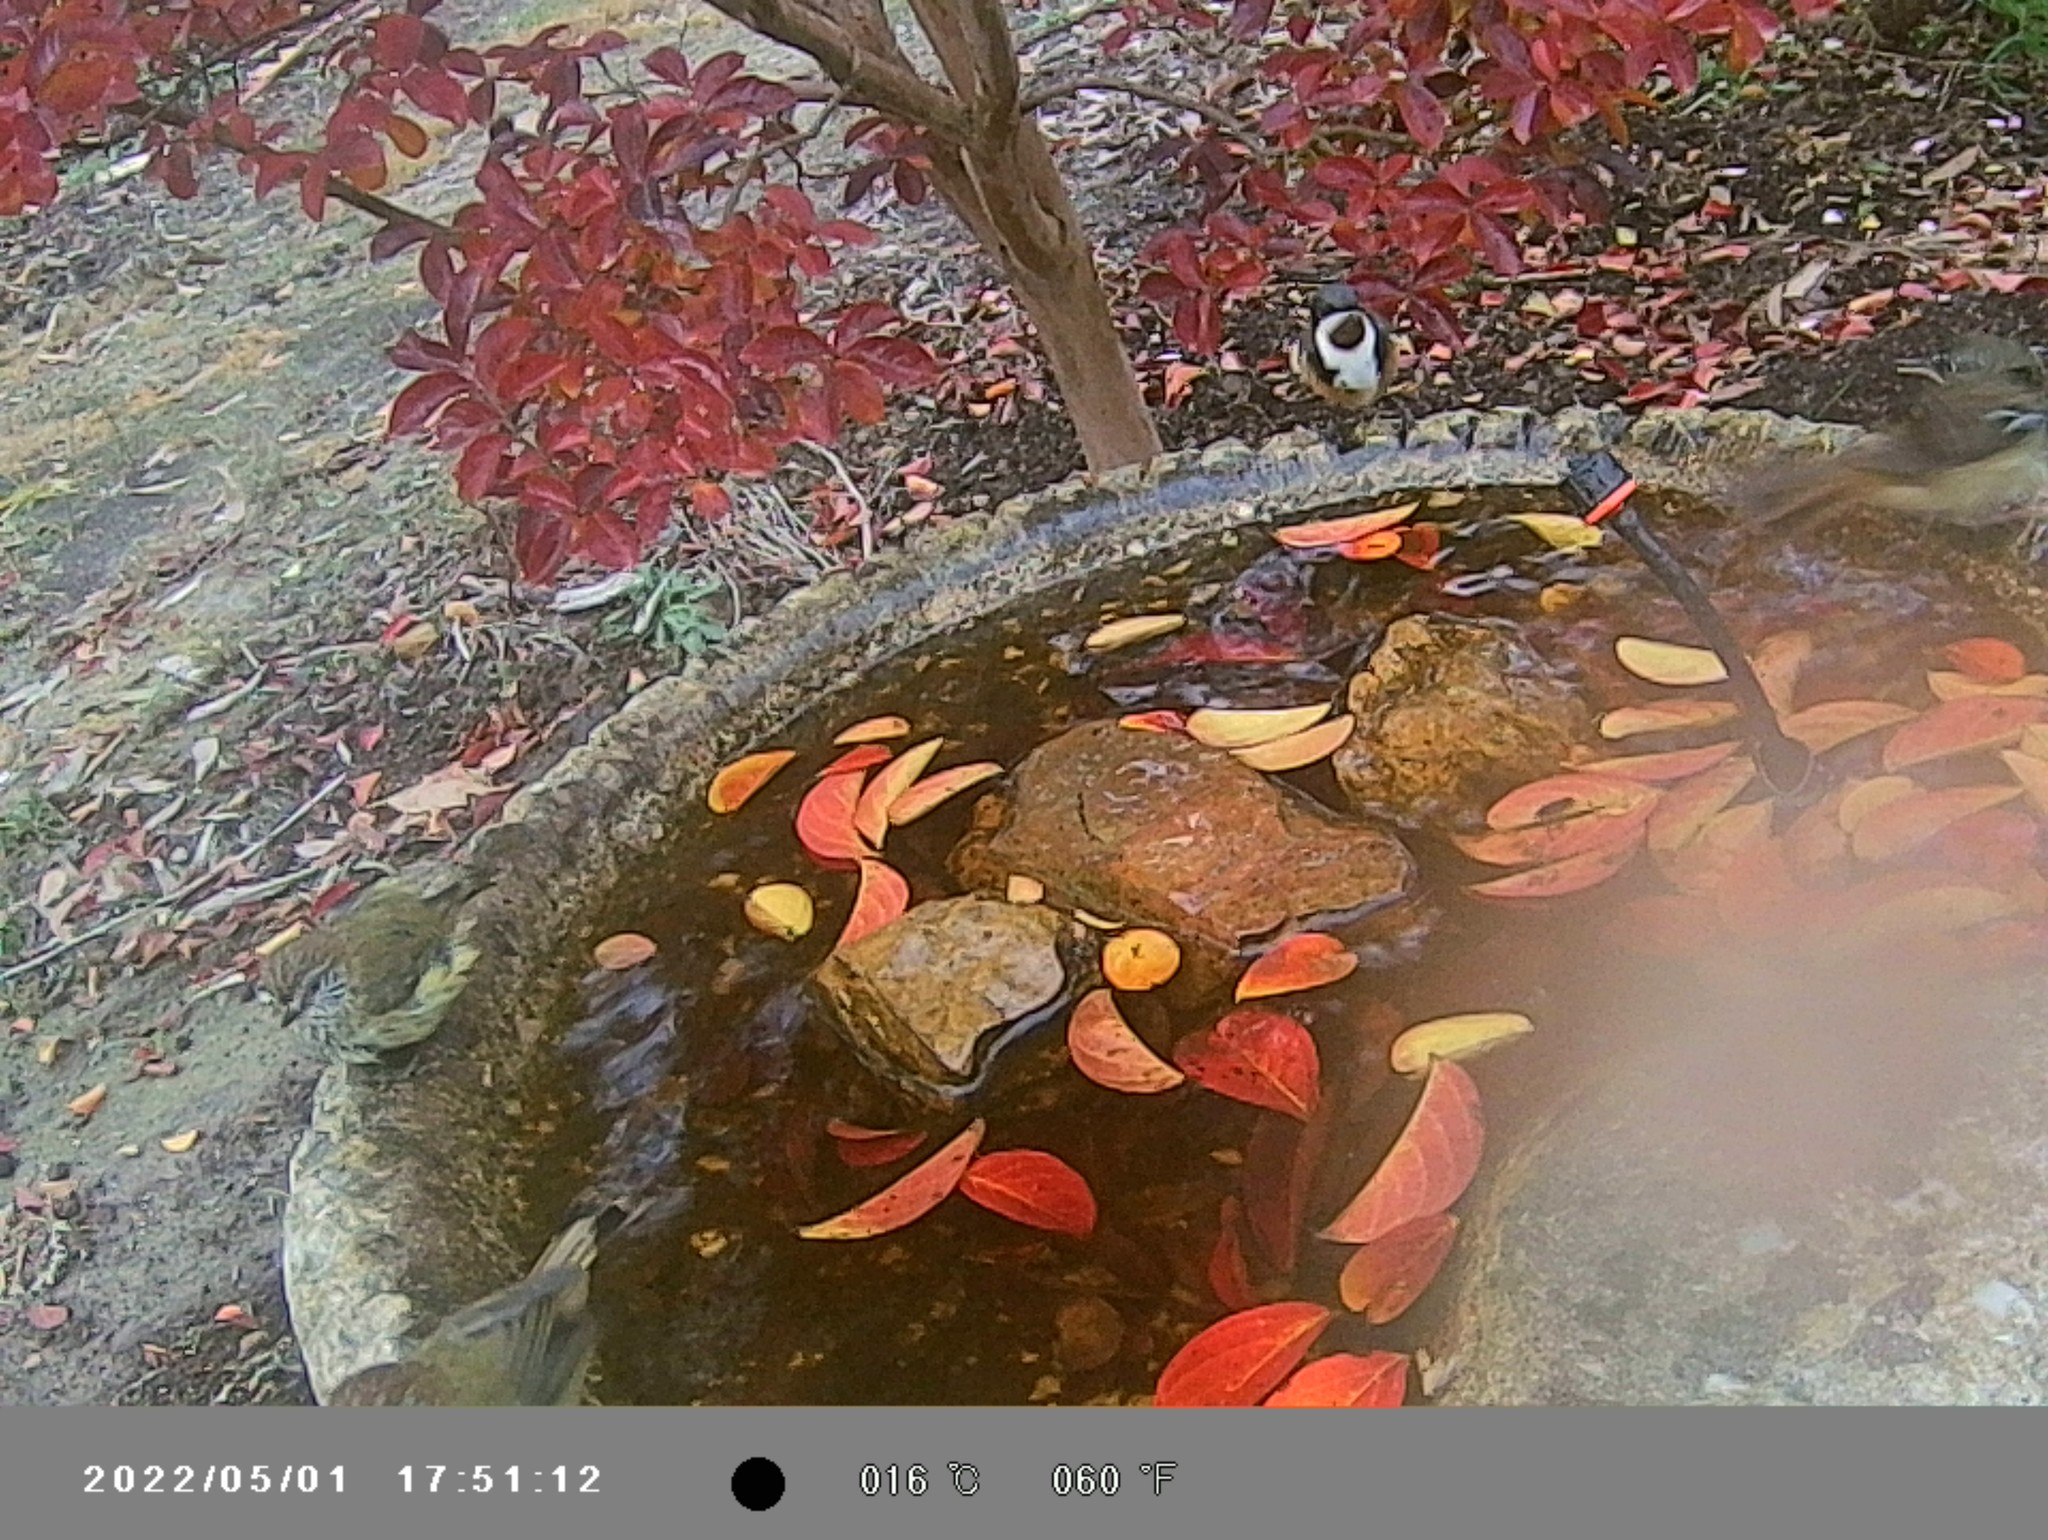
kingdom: Animalia
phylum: Chordata
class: Aves
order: Passeriformes
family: Meliphagidae
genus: Acanthorhynchus
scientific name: Acanthorhynchus tenuirostris
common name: Eastern spinebill
